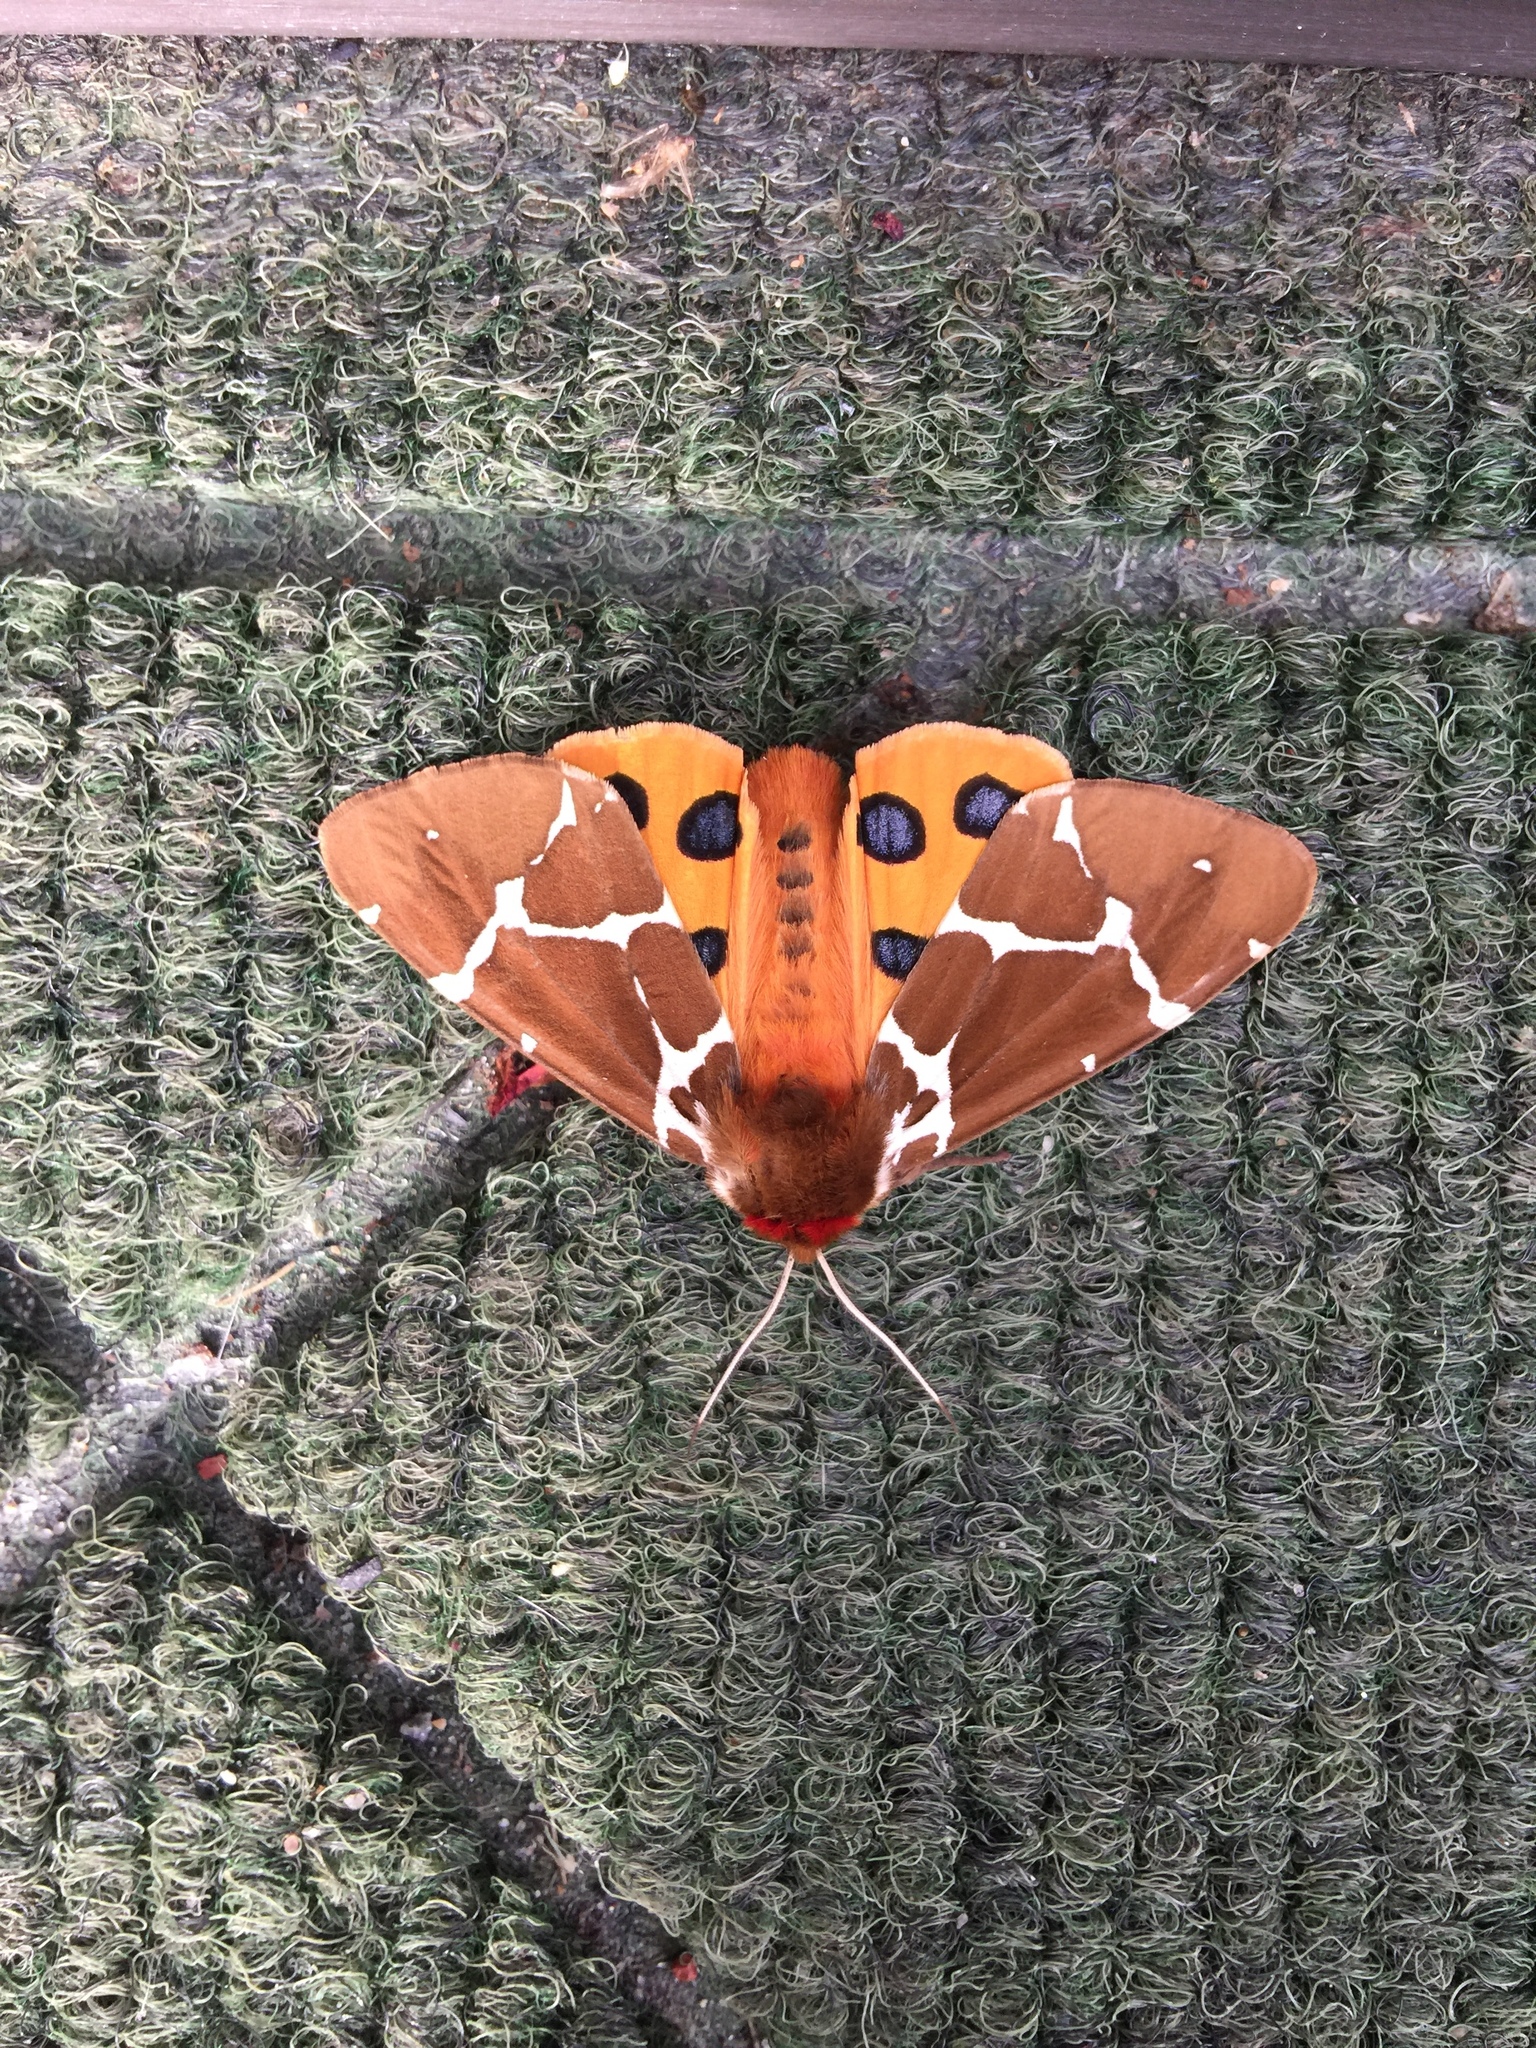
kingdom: Animalia
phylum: Arthropoda
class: Insecta
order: Lepidoptera
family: Erebidae
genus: Arctia
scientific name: Arctia caja
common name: Garden tiger
